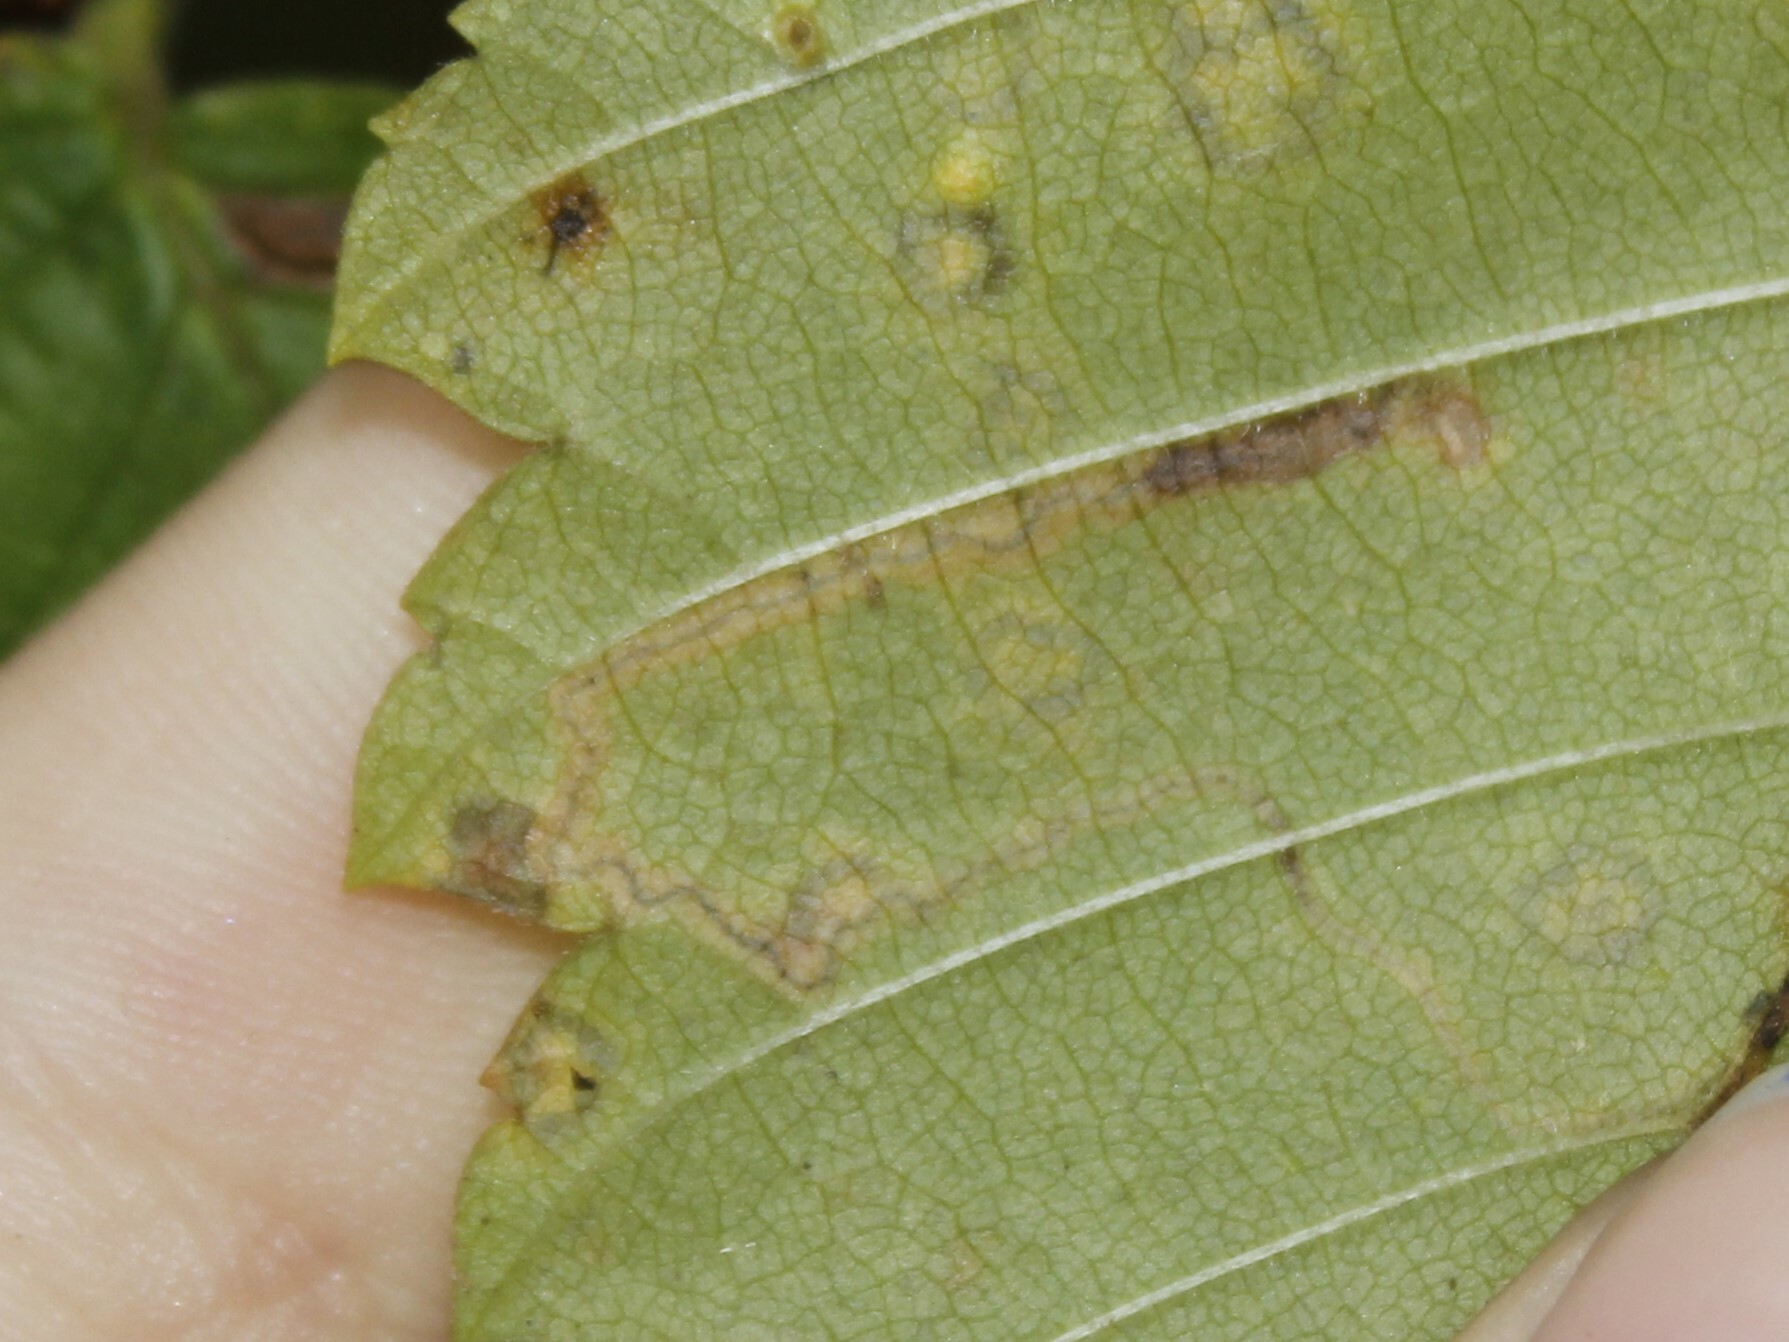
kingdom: Animalia
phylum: Arthropoda
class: Insecta
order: Lepidoptera
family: Nepticulidae
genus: Stigmella
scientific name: Stigmella apicialbella
